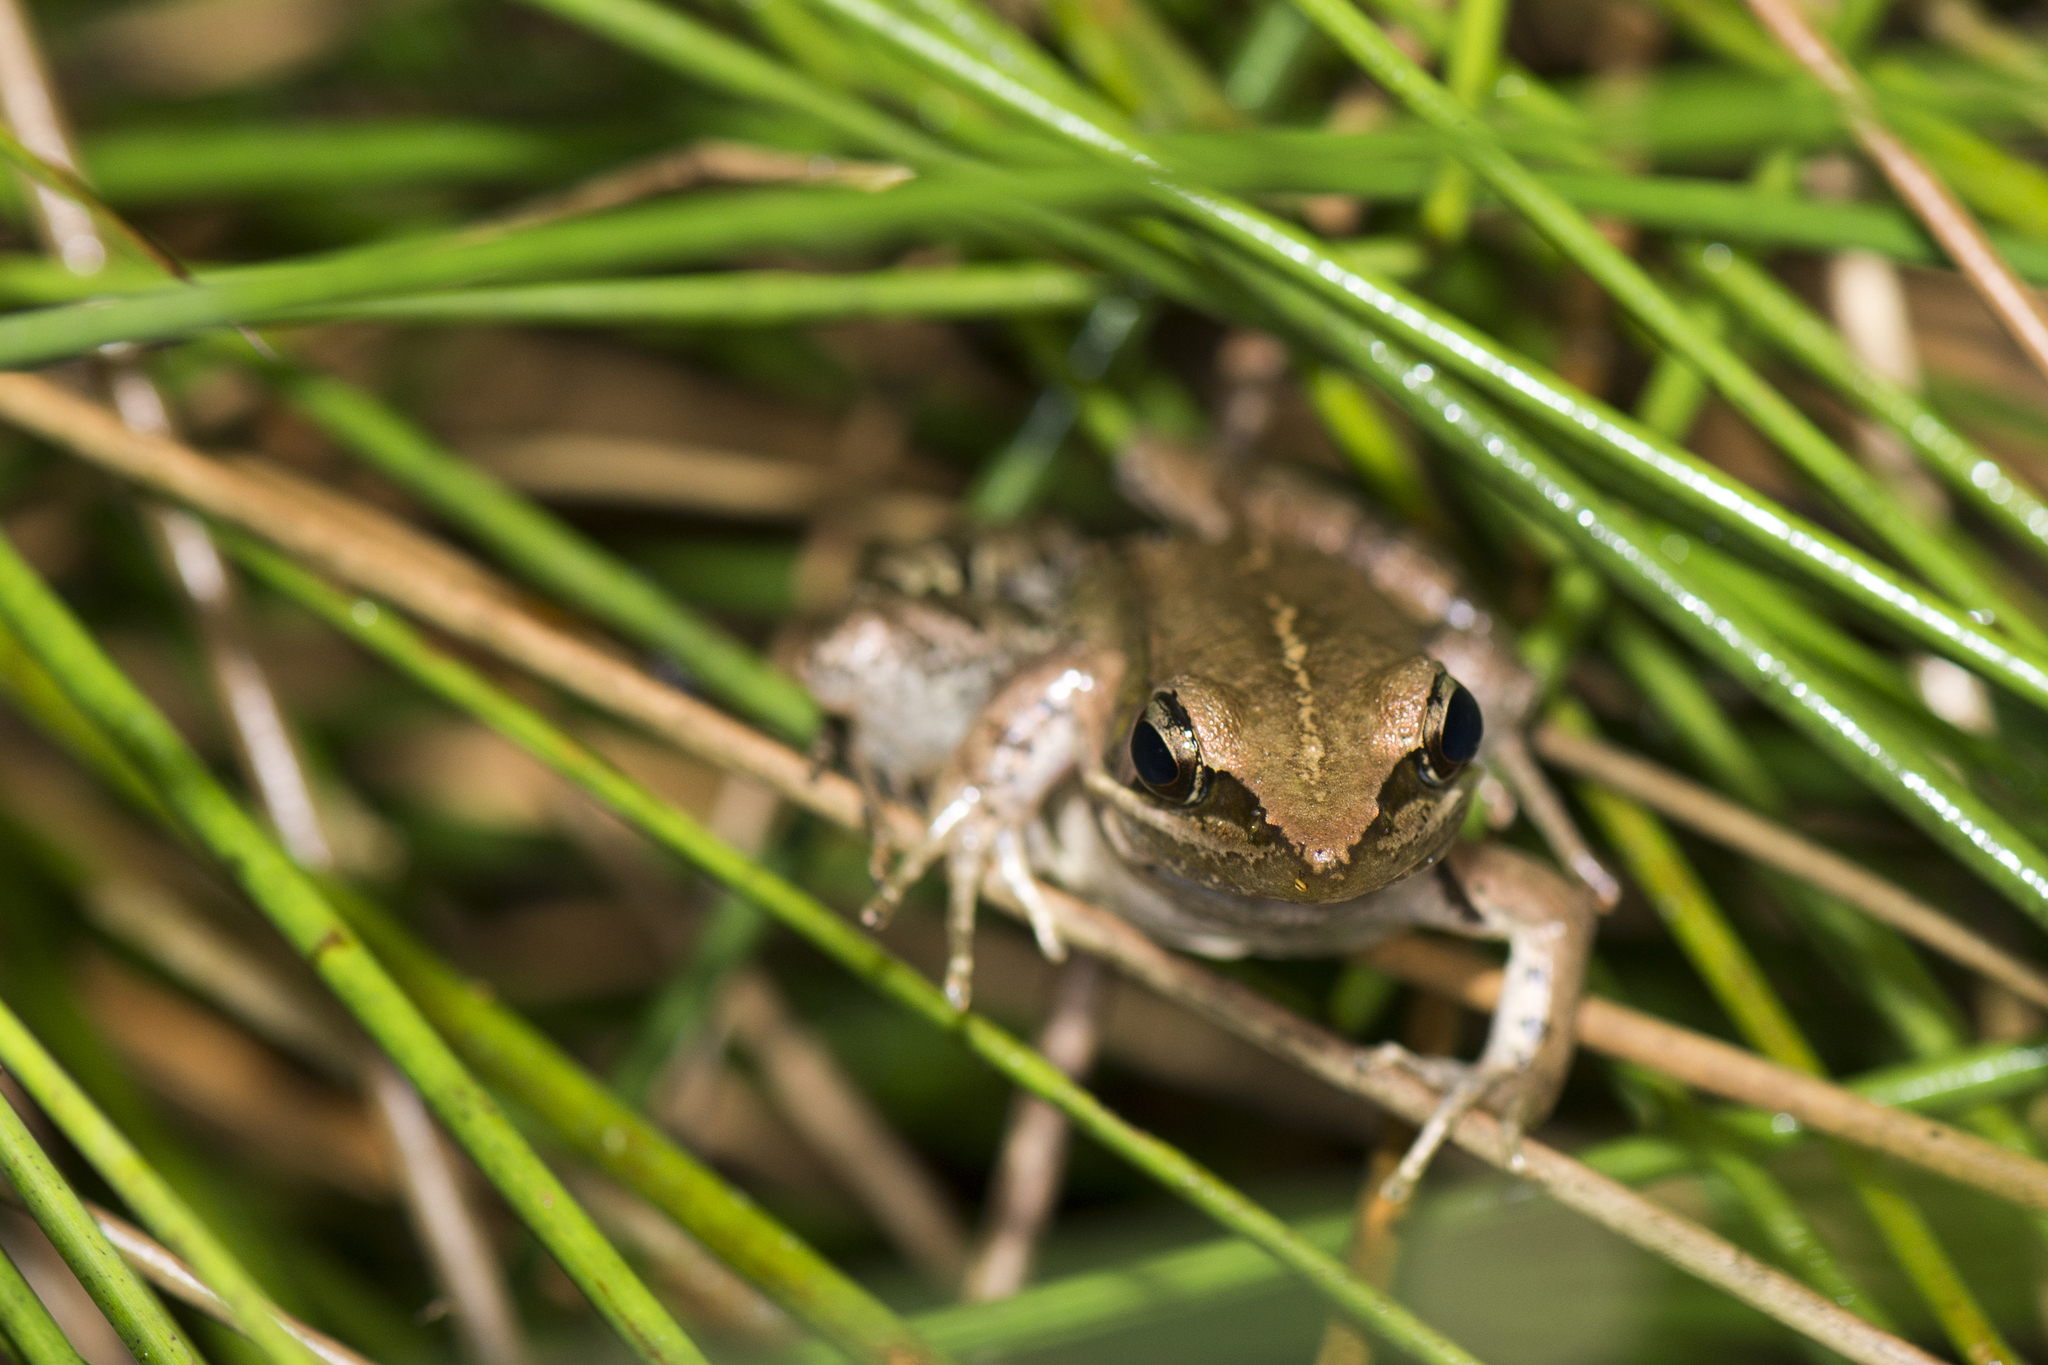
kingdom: Animalia
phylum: Chordata
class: Amphibia
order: Anura
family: Ranidae
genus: Nidirana
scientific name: Nidirana adenopleura
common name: Olive frog
